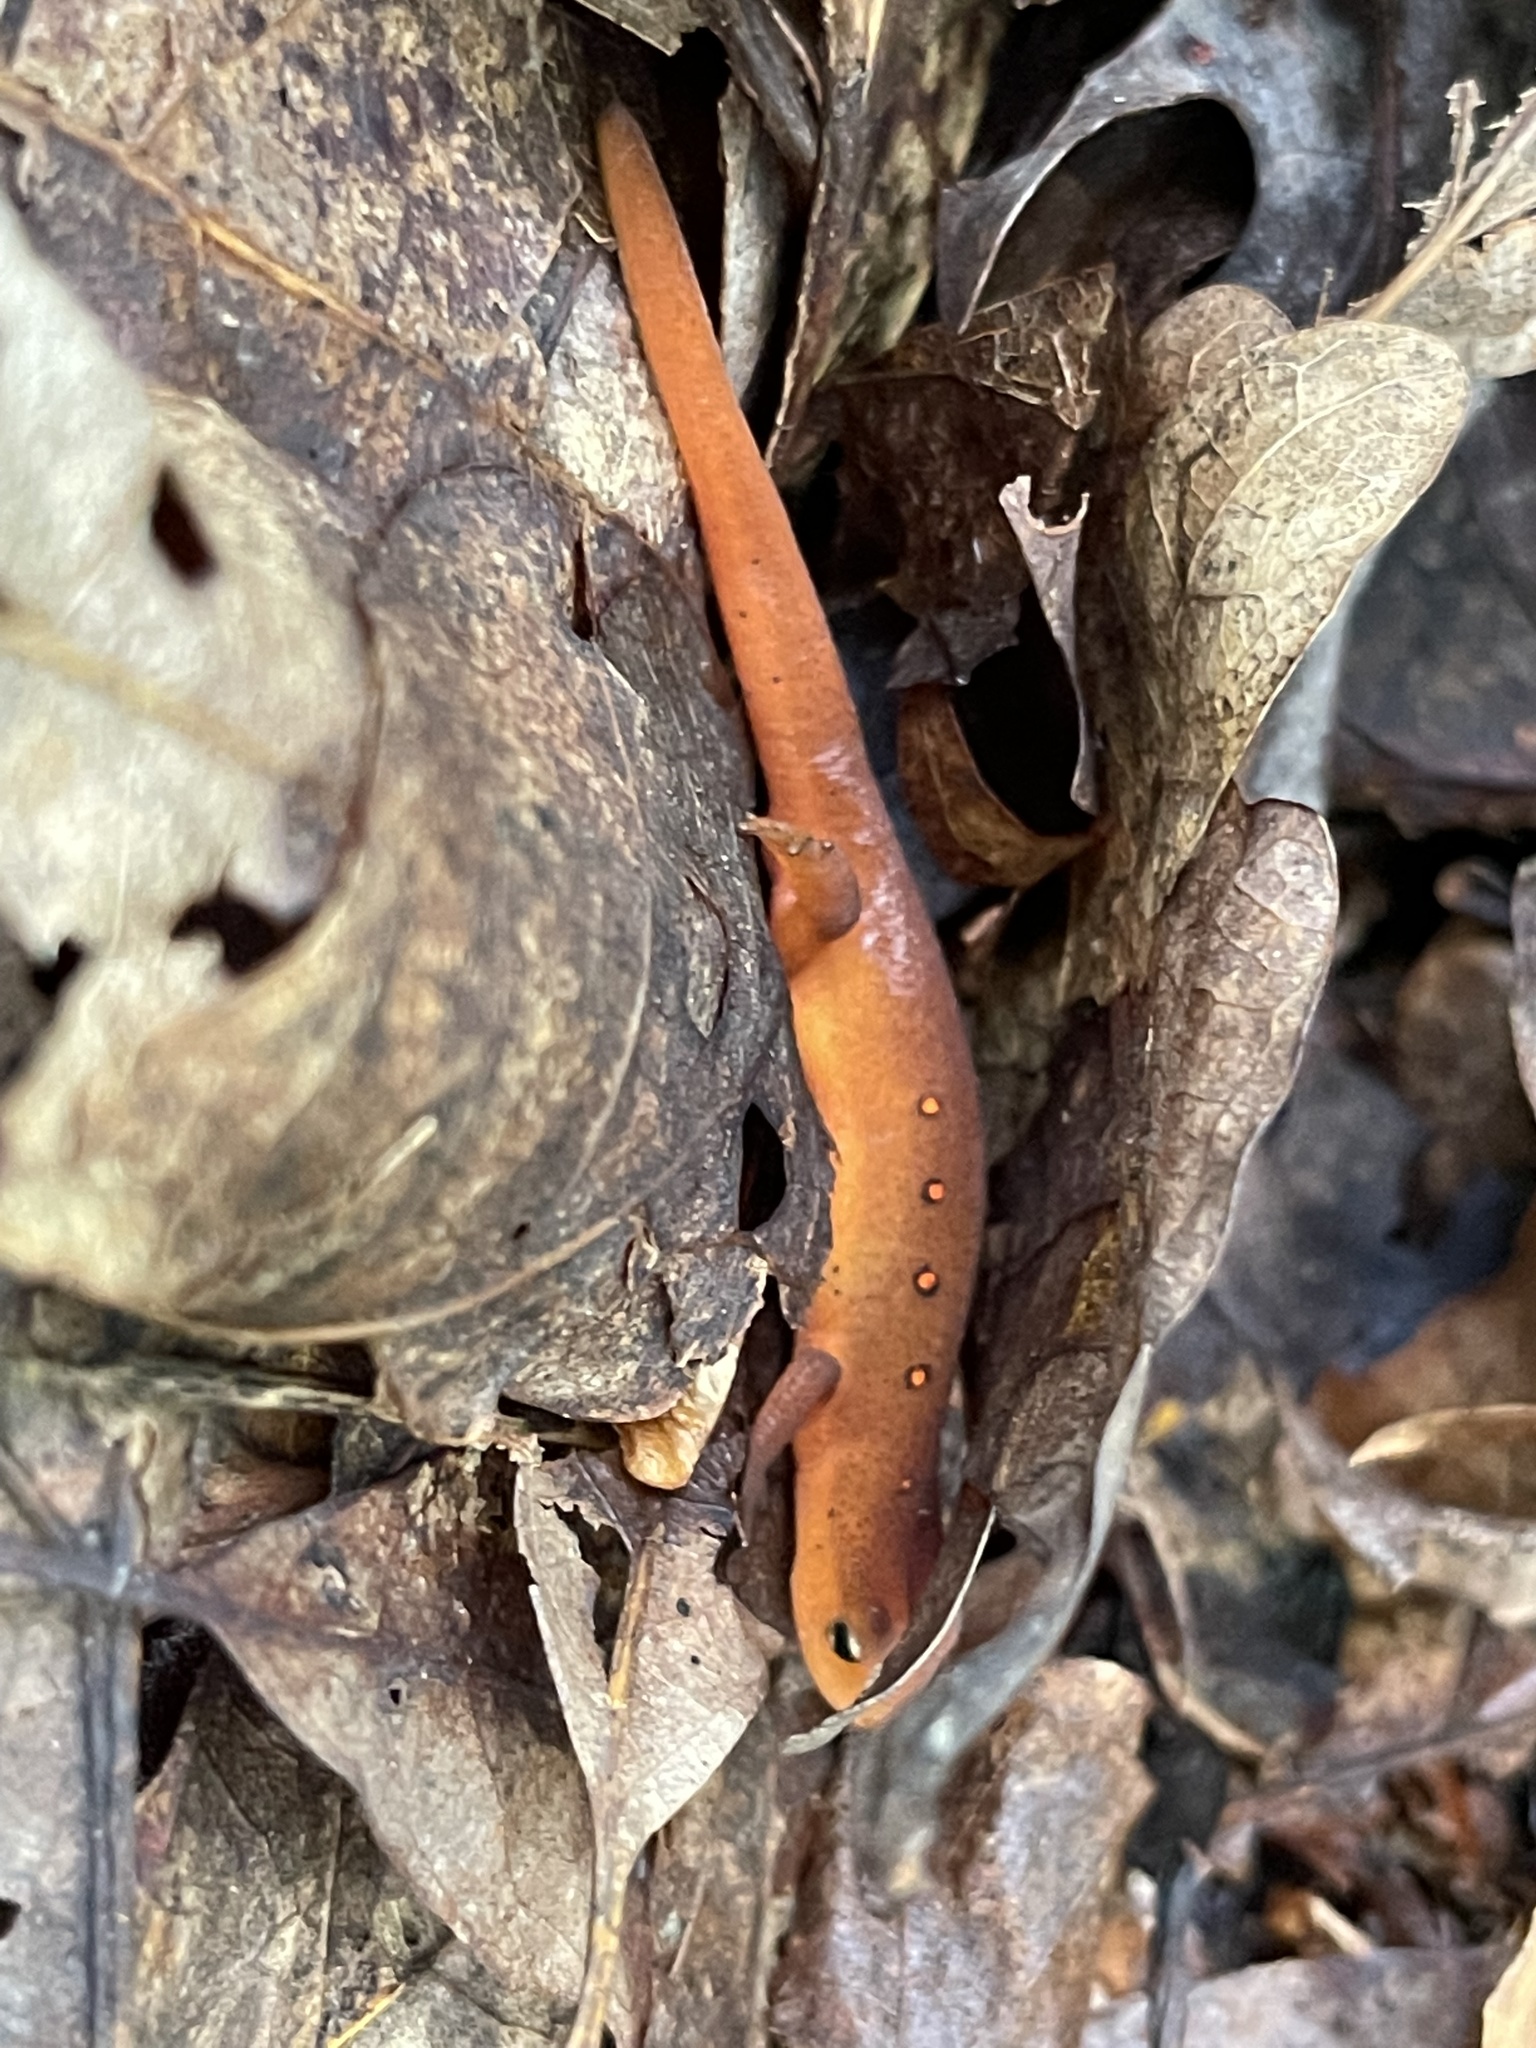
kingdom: Animalia
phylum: Chordata
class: Amphibia
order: Caudata
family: Salamandridae
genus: Notophthalmus
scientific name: Notophthalmus viridescens
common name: Eastern newt
